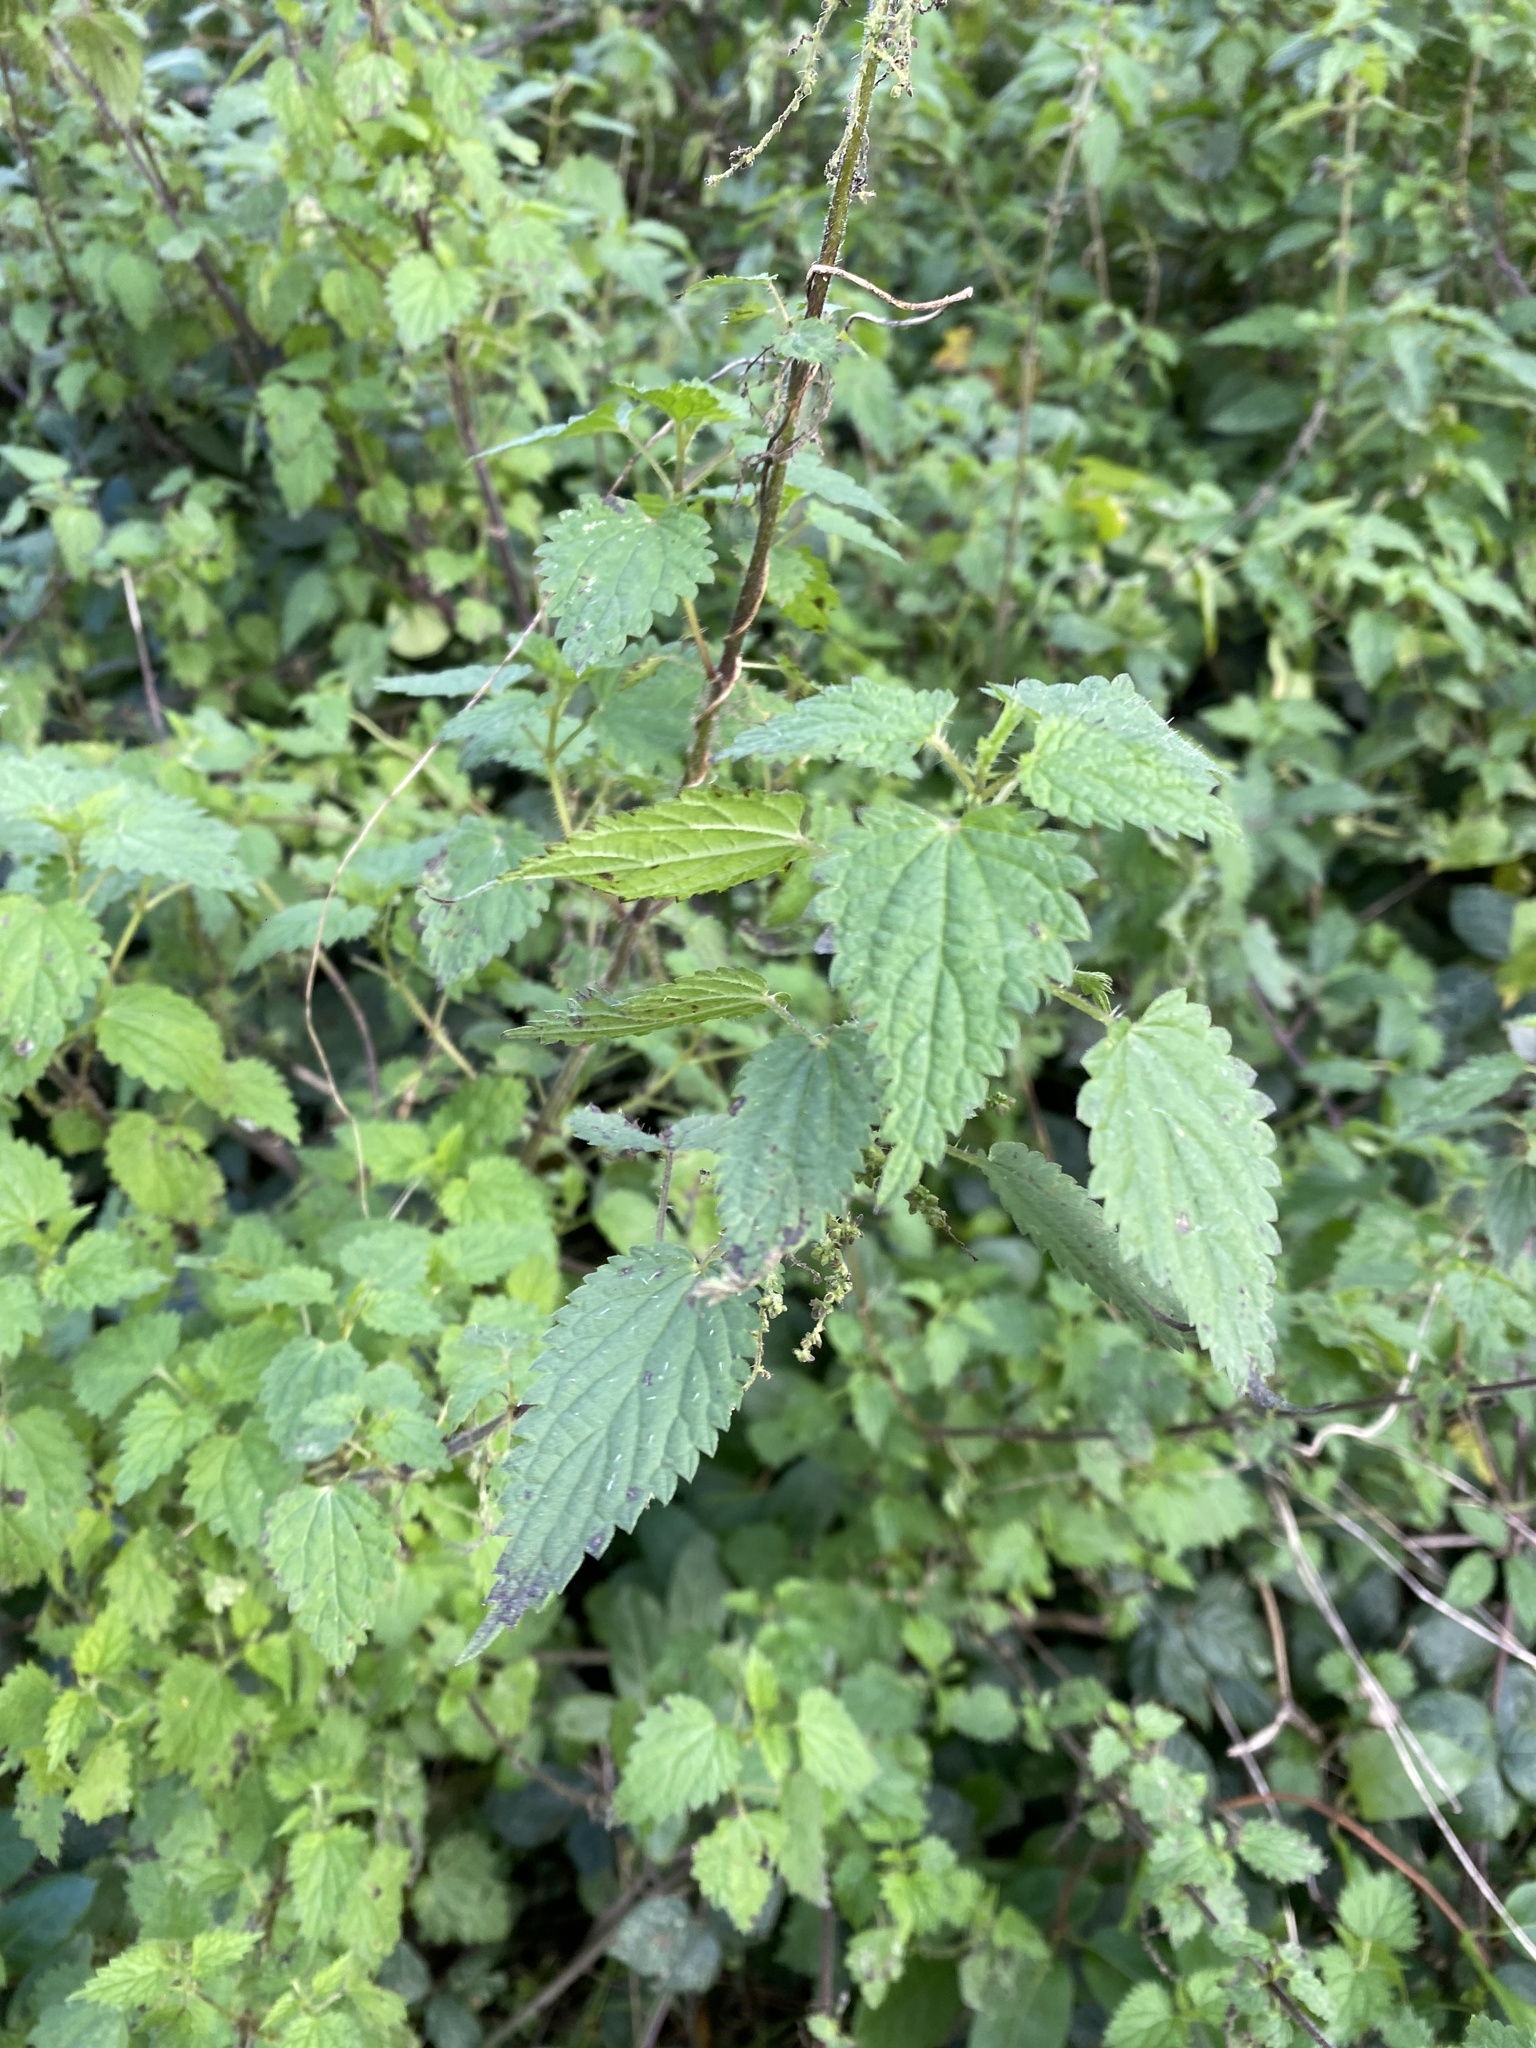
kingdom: Plantae
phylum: Tracheophyta
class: Magnoliopsida
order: Rosales
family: Urticaceae
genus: Urtica
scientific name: Urtica dioica
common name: Common nettle
